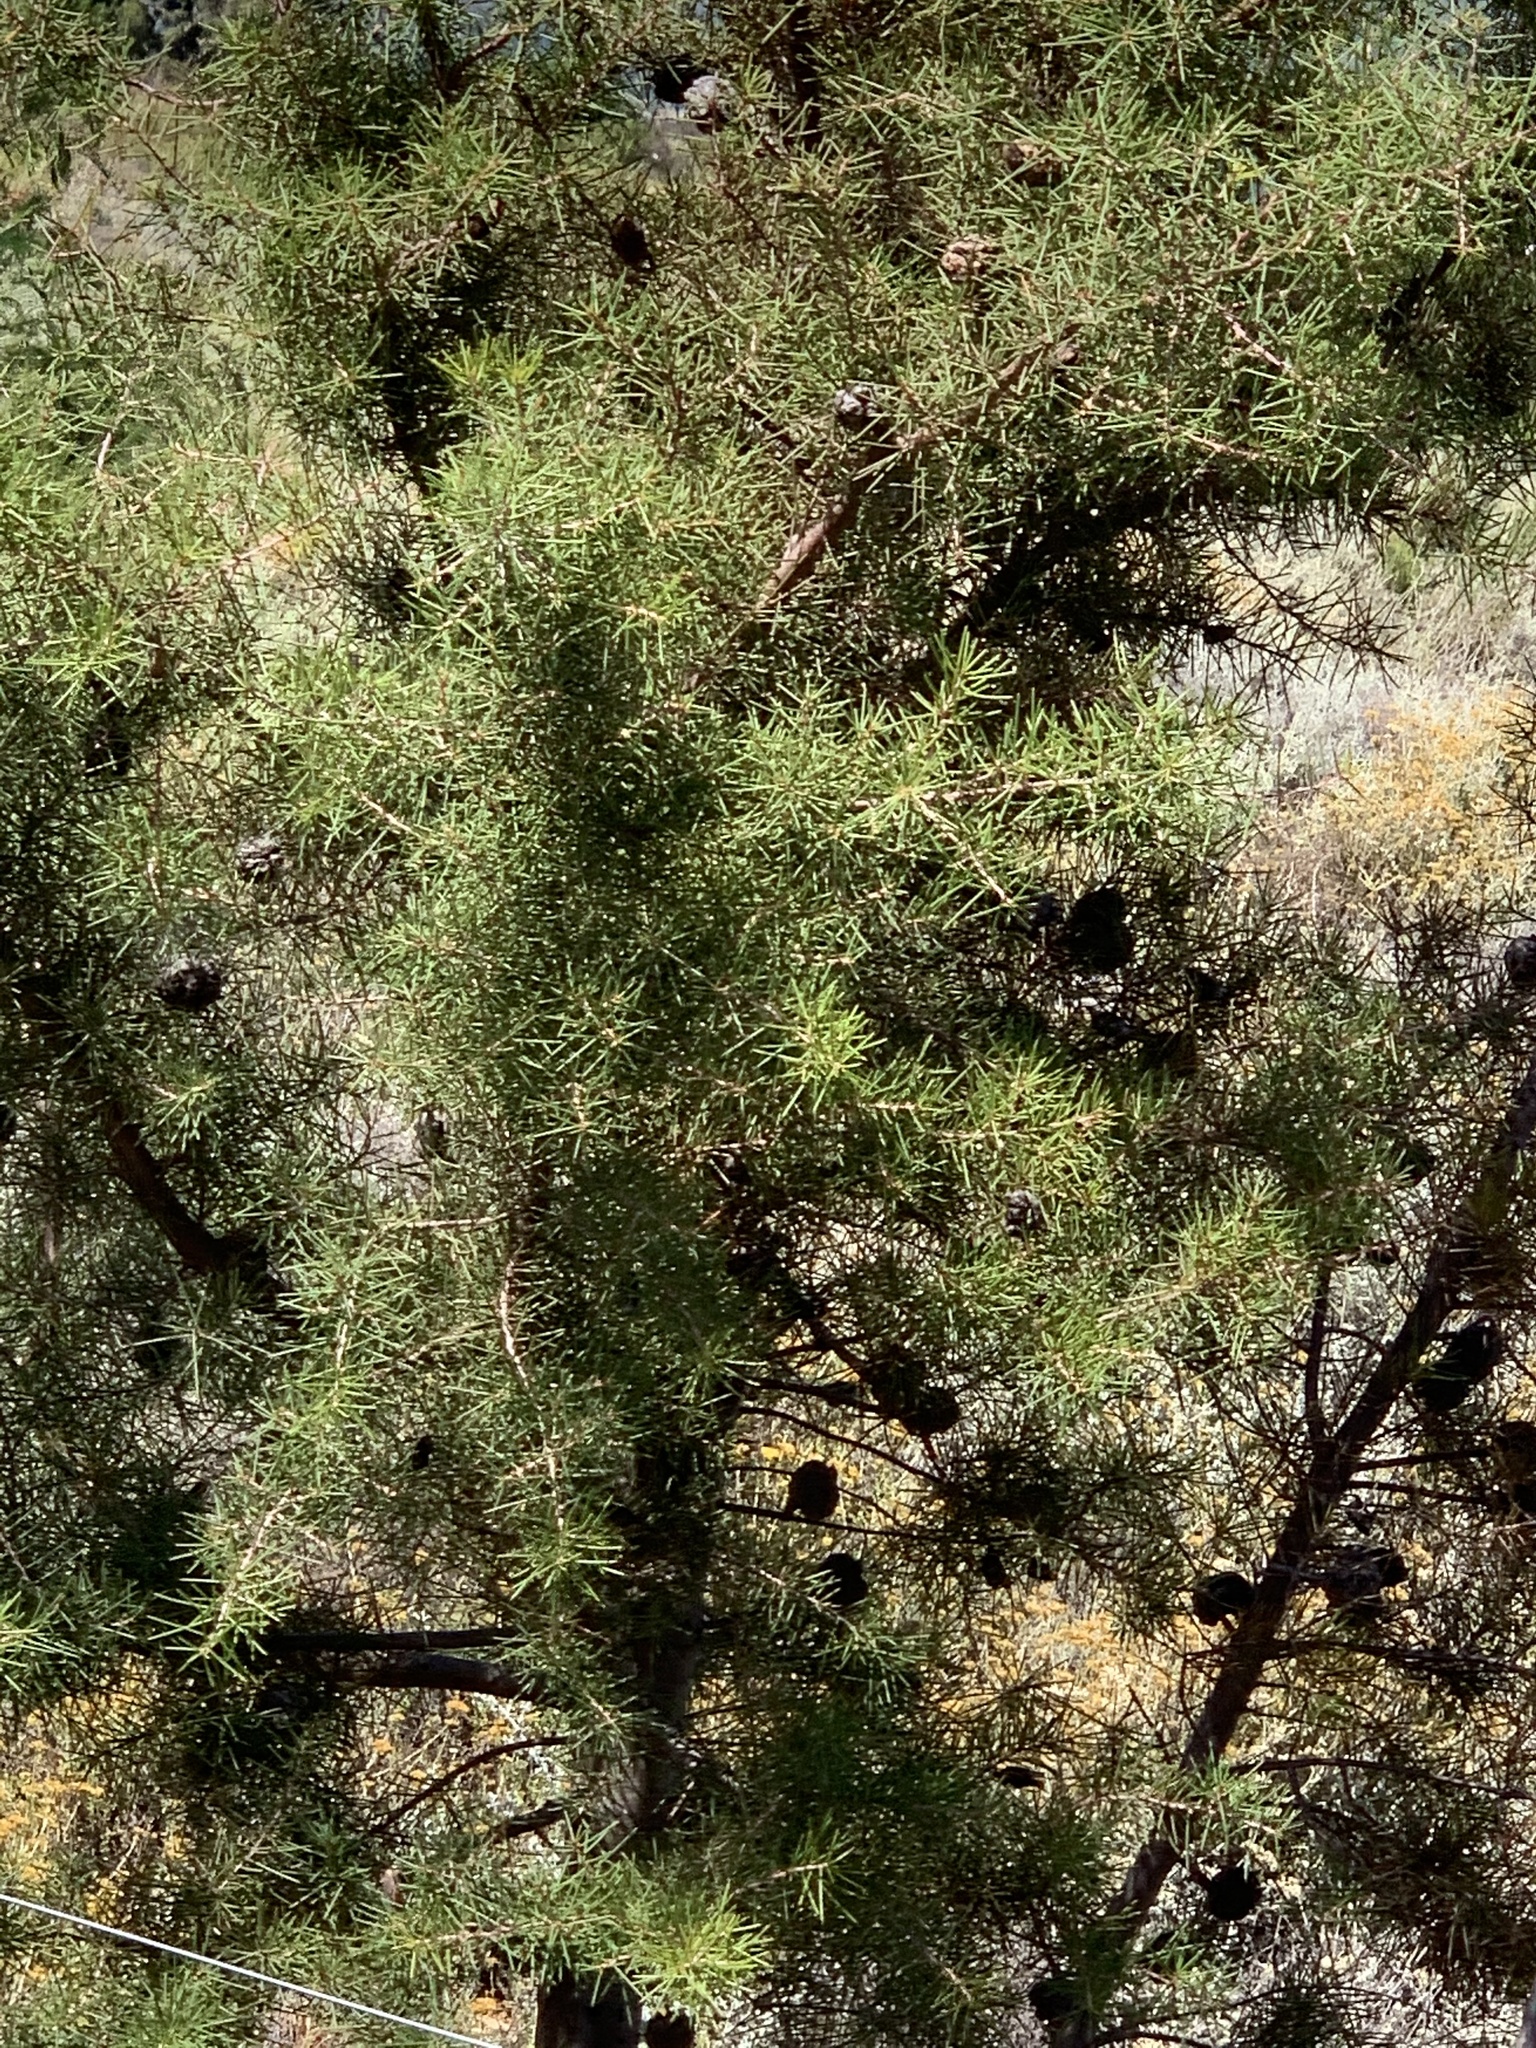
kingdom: Plantae
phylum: Tracheophyta
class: Magnoliopsida
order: Proteales
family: Proteaceae
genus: Hakea
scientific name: Hakea sericea
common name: Needle bush
